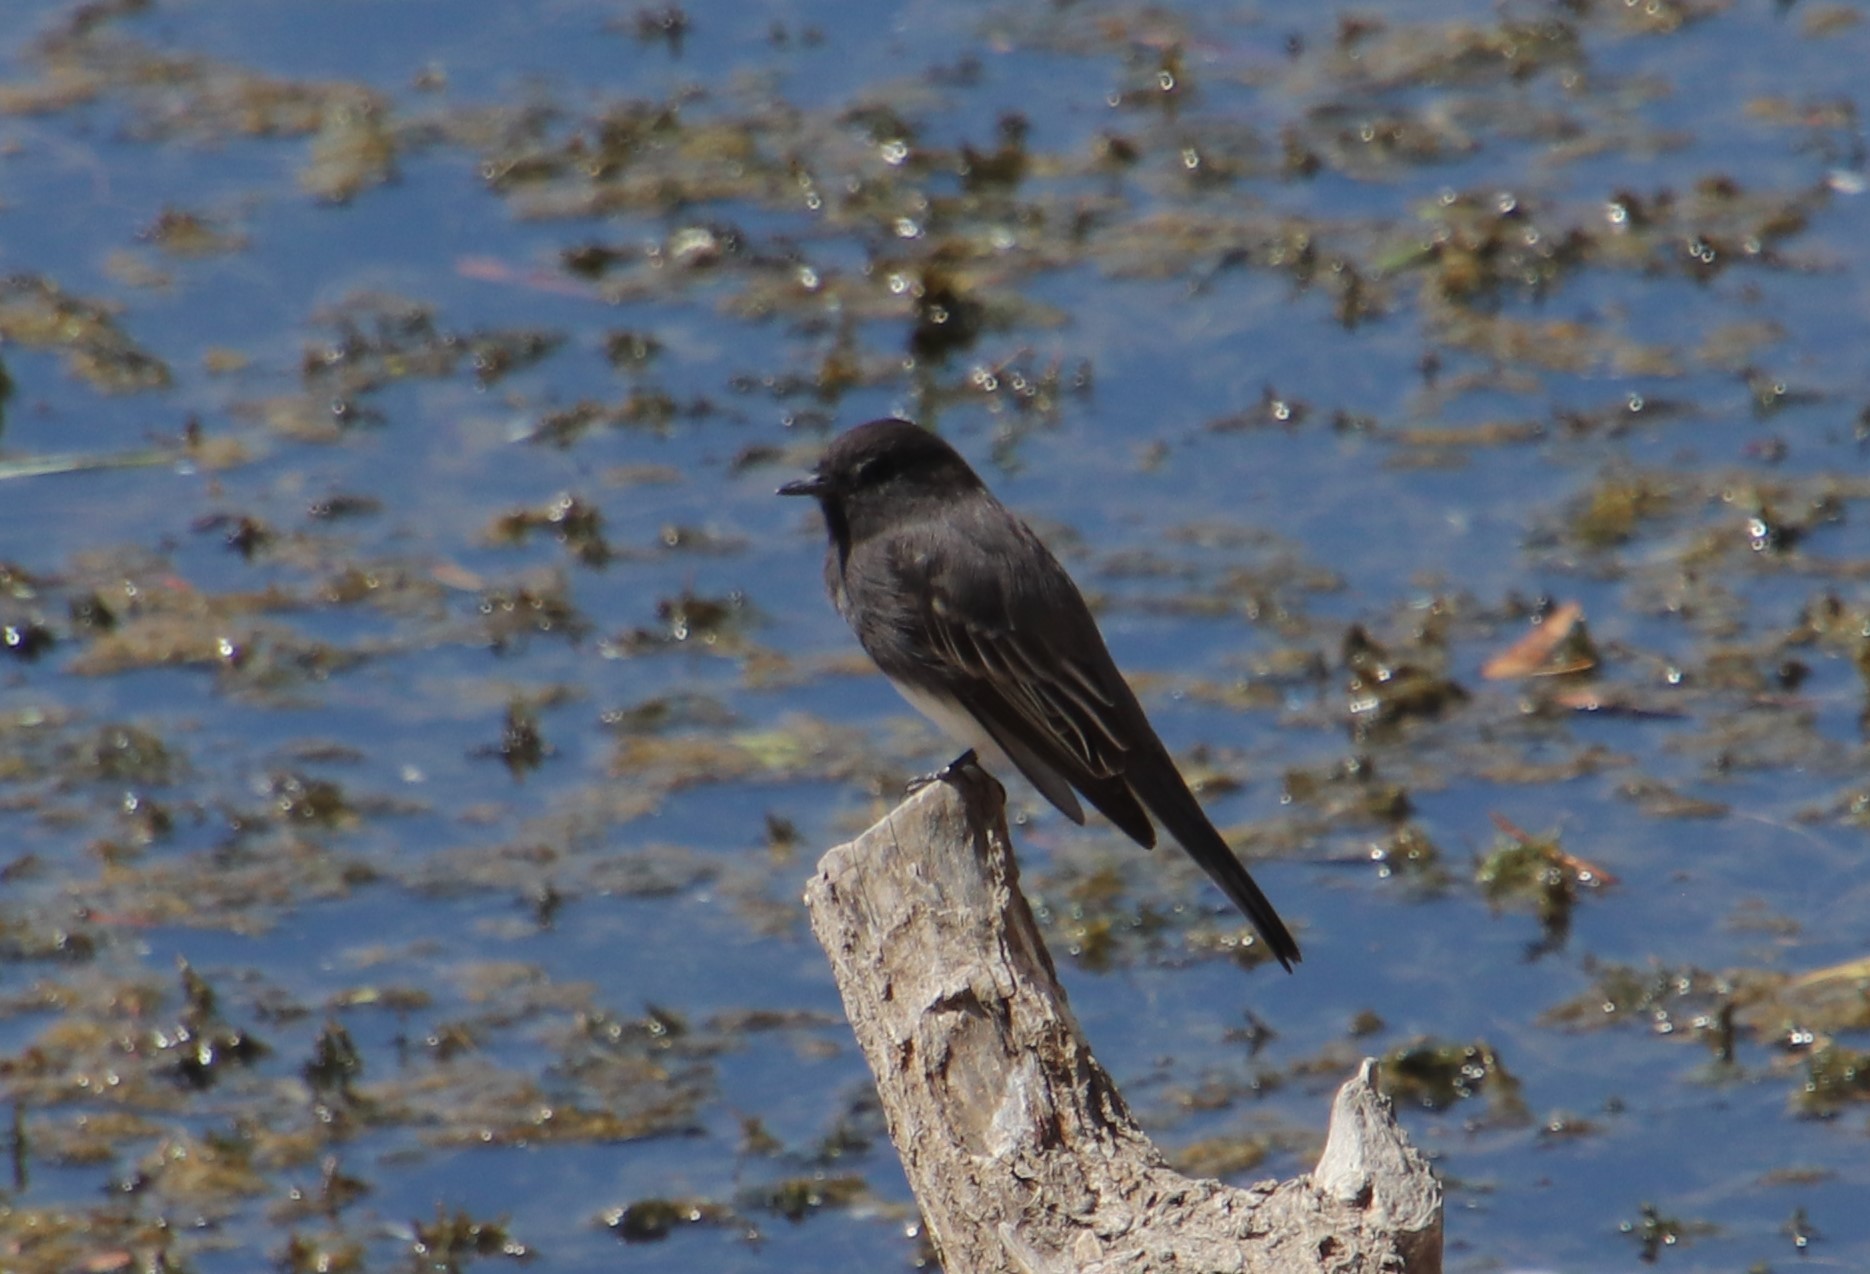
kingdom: Animalia
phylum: Chordata
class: Aves
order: Passeriformes
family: Tyrannidae
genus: Sayornis
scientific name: Sayornis nigricans
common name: Black phoebe
